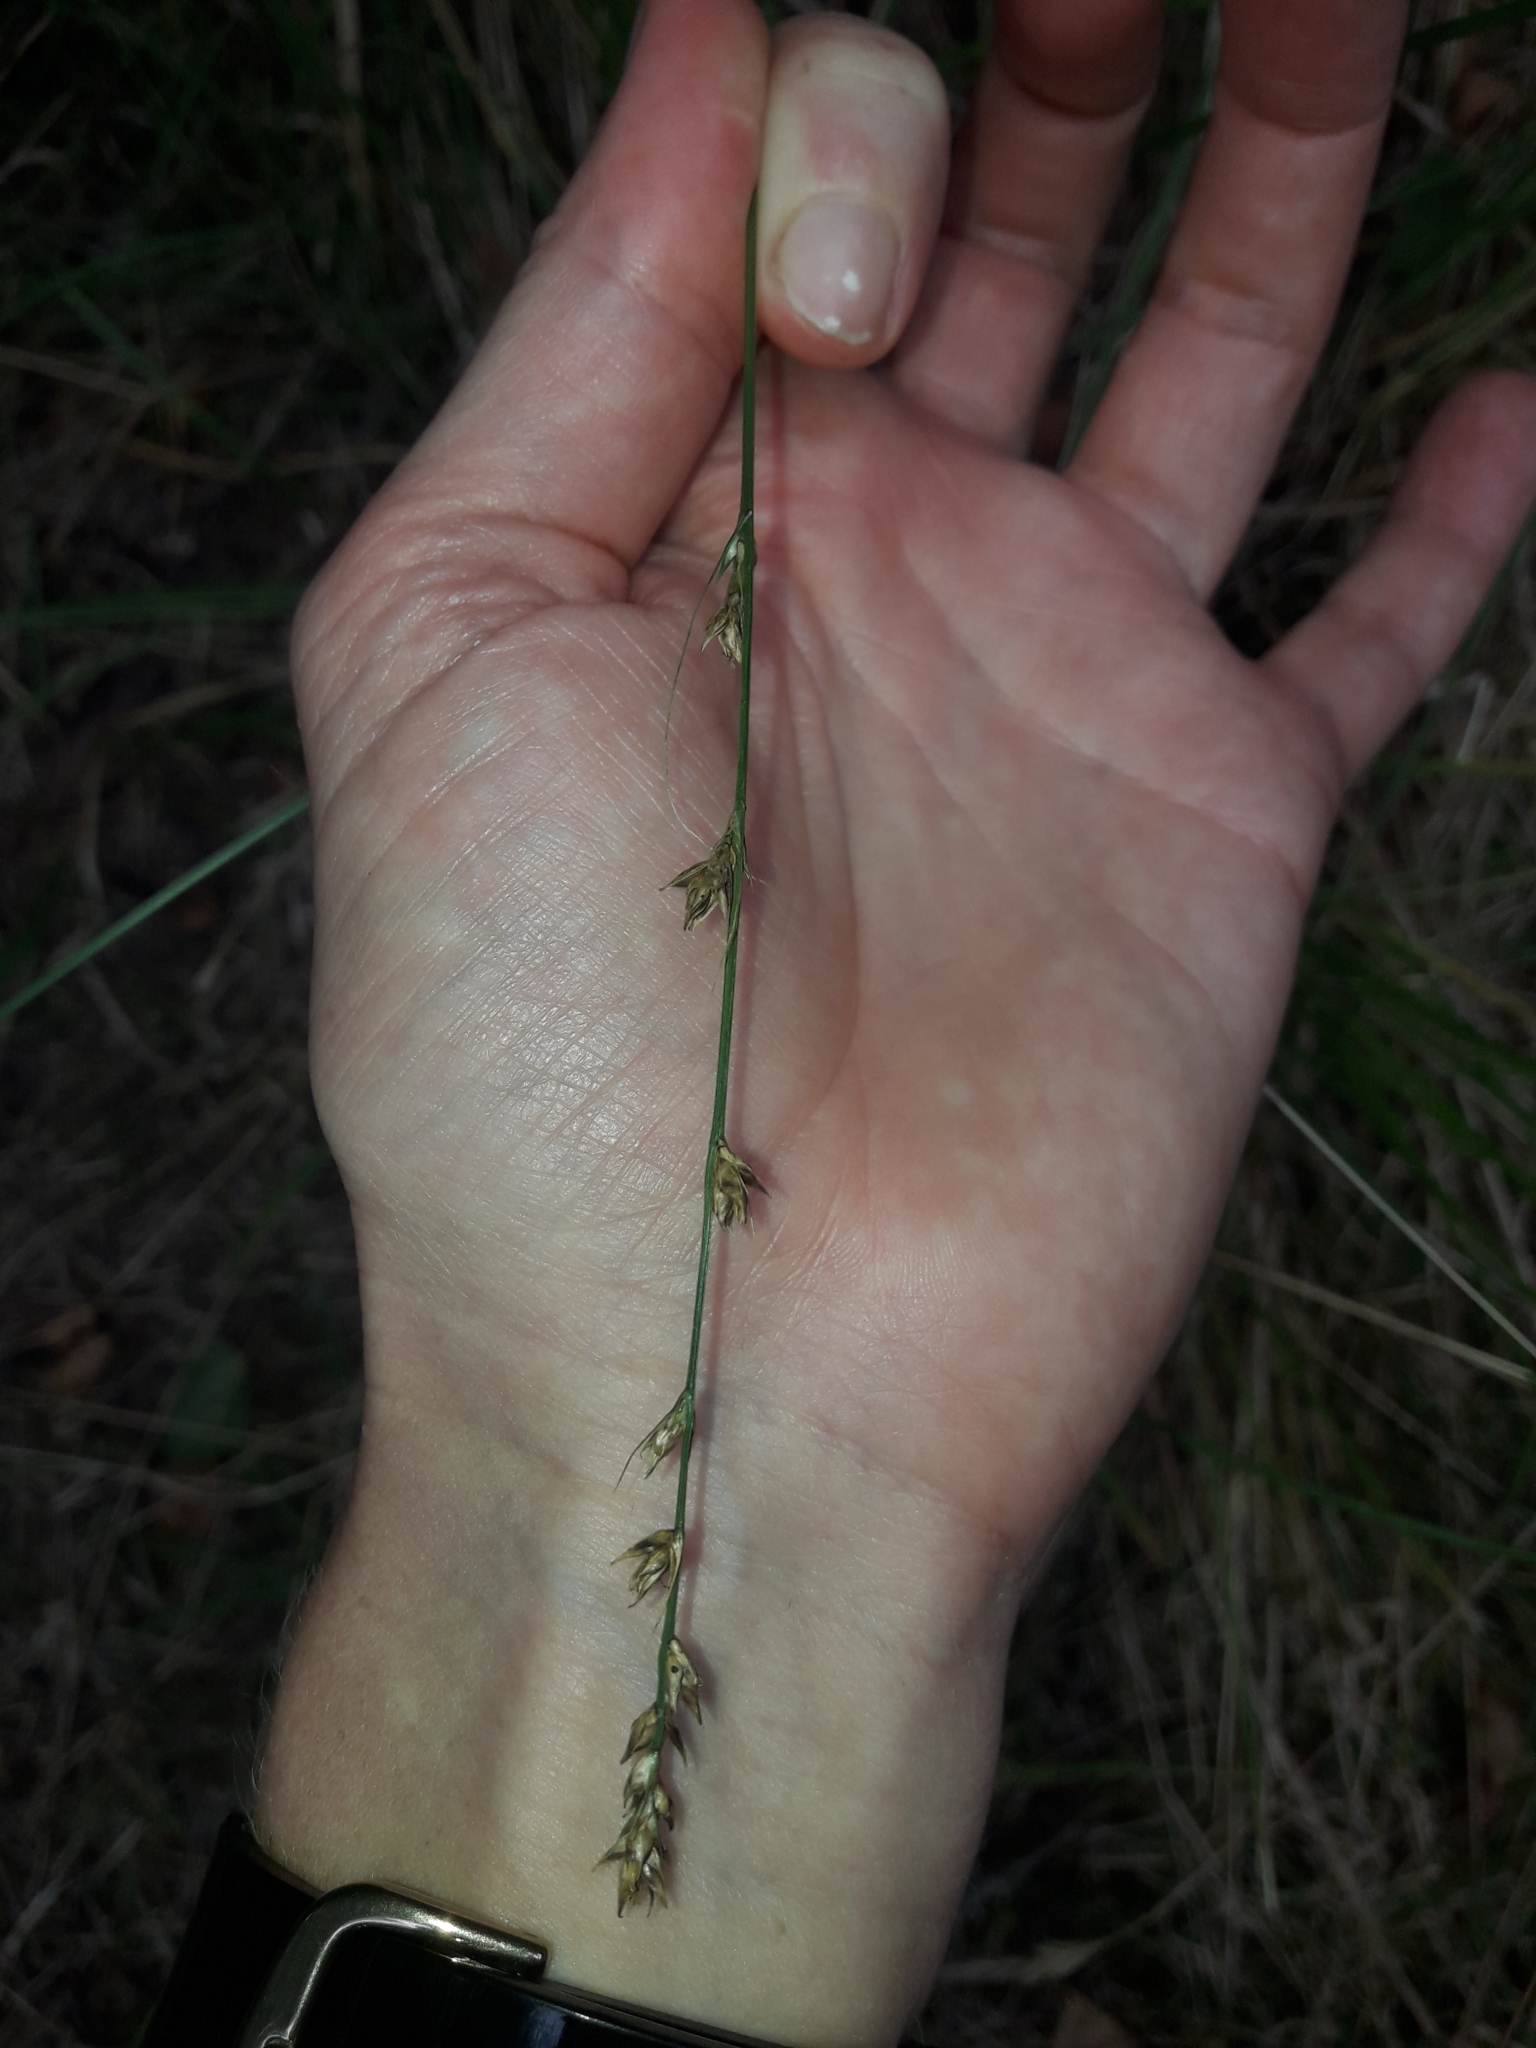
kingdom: Plantae
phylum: Tracheophyta
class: Liliopsida
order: Poales
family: Cyperaceae
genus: Carex
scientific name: Carex divulsa
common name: Grassland sedge
